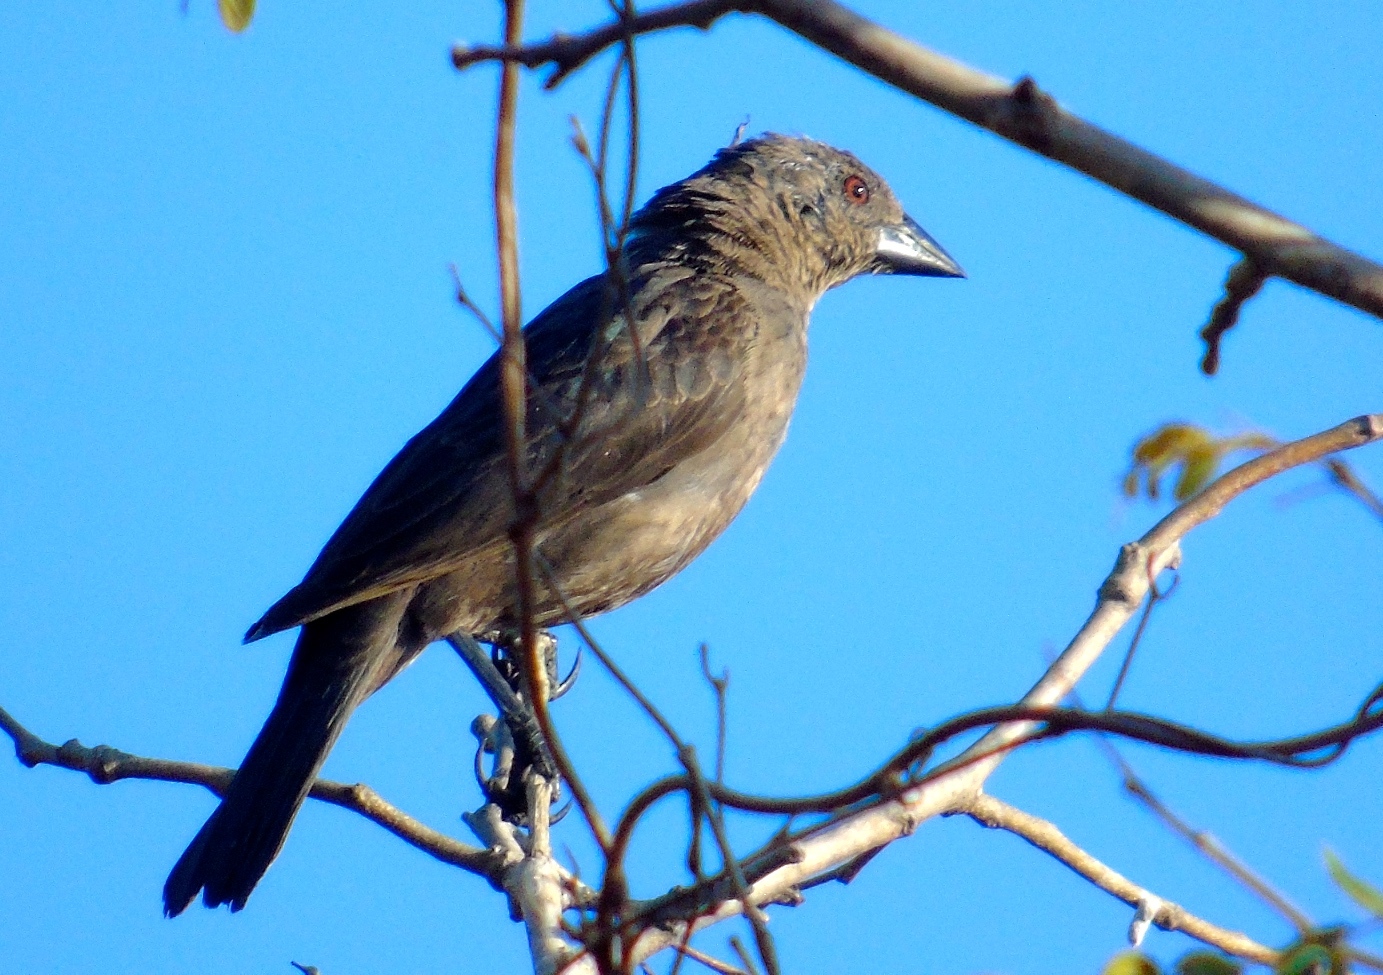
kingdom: Animalia
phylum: Chordata
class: Aves
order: Passeriformes
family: Icteridae
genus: Molothrus
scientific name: Molothrus aeneus
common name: Bronzed cowbird
